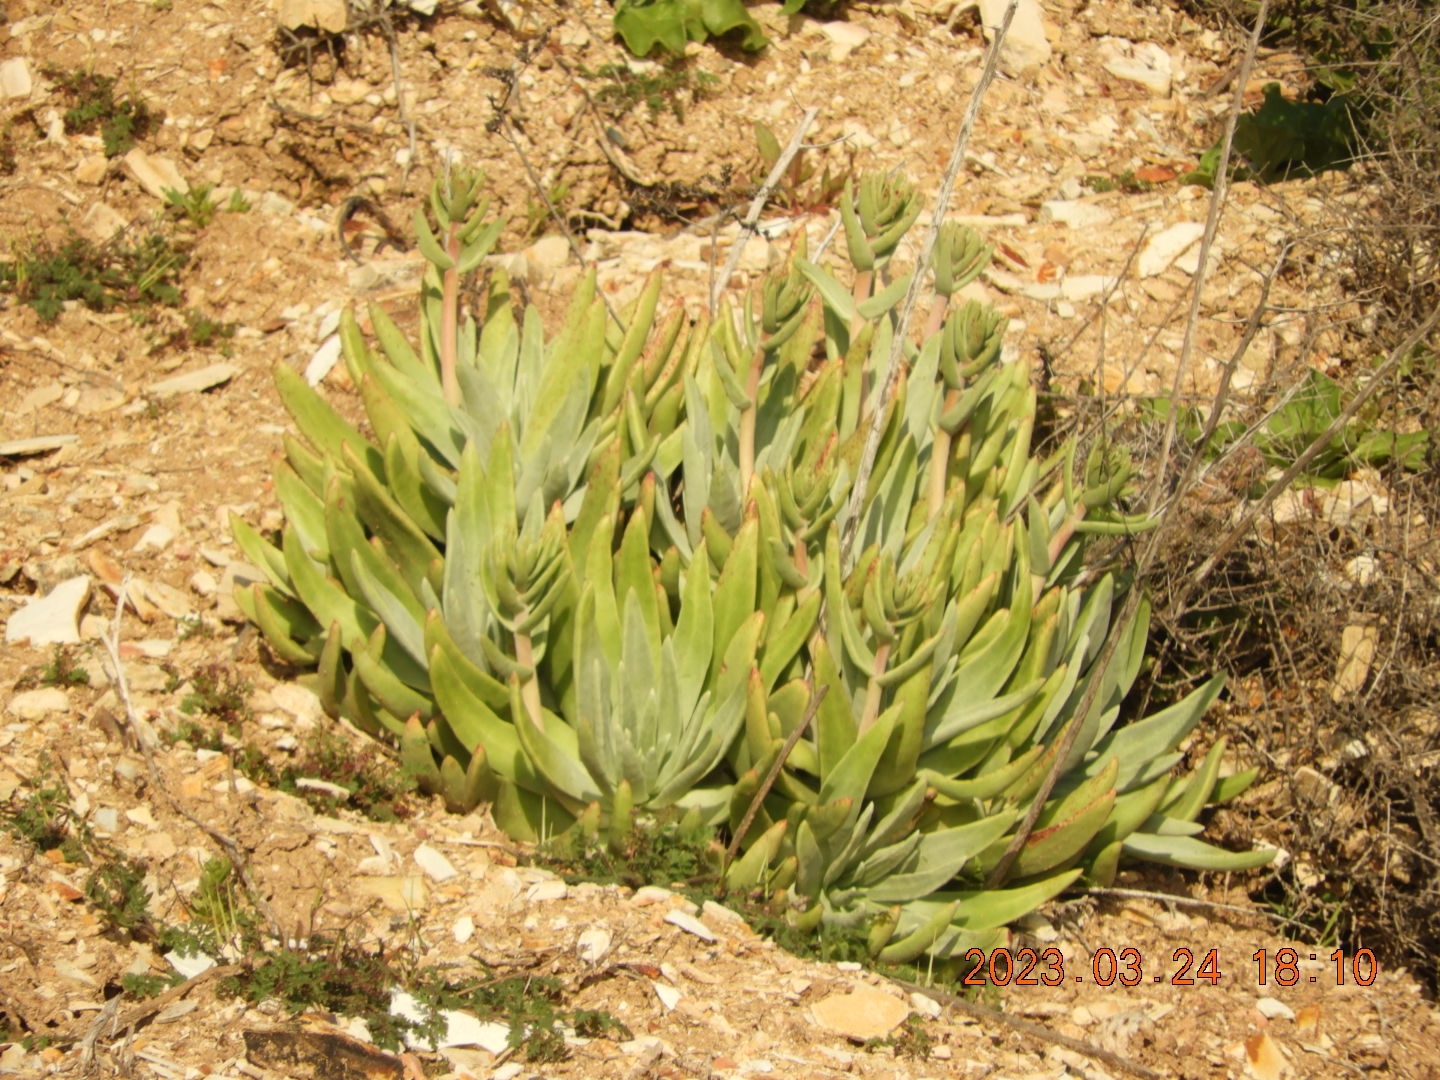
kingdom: Plantae
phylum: Tracheophyta
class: Magnoliopsida
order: Saxifragales
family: Crassulaceae
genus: Dudleya
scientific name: Dudleya virens
